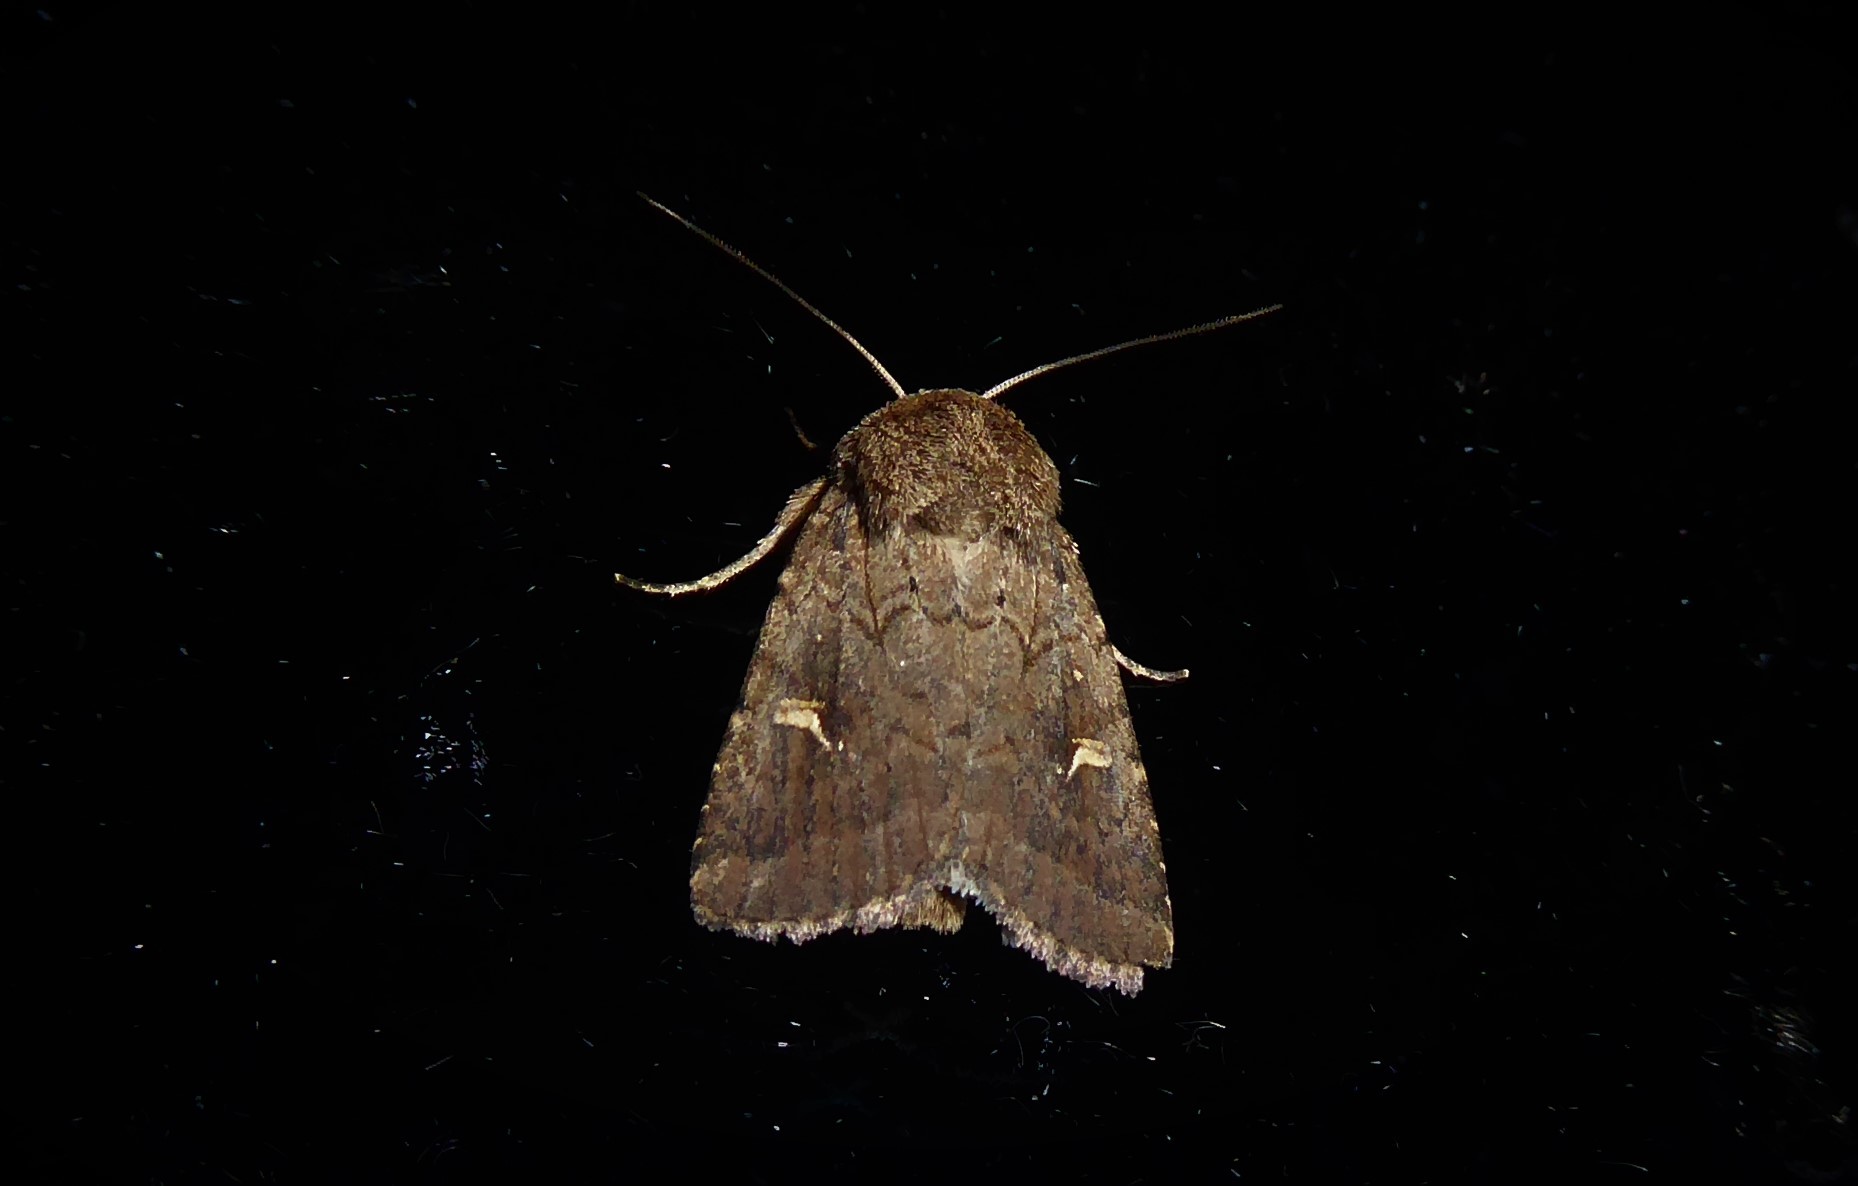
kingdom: Animalia
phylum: Arthropoda
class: Insecta
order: Lepidoptera
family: Noctuidae
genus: Proteuxoa
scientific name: Proteuxoa tetronycha
